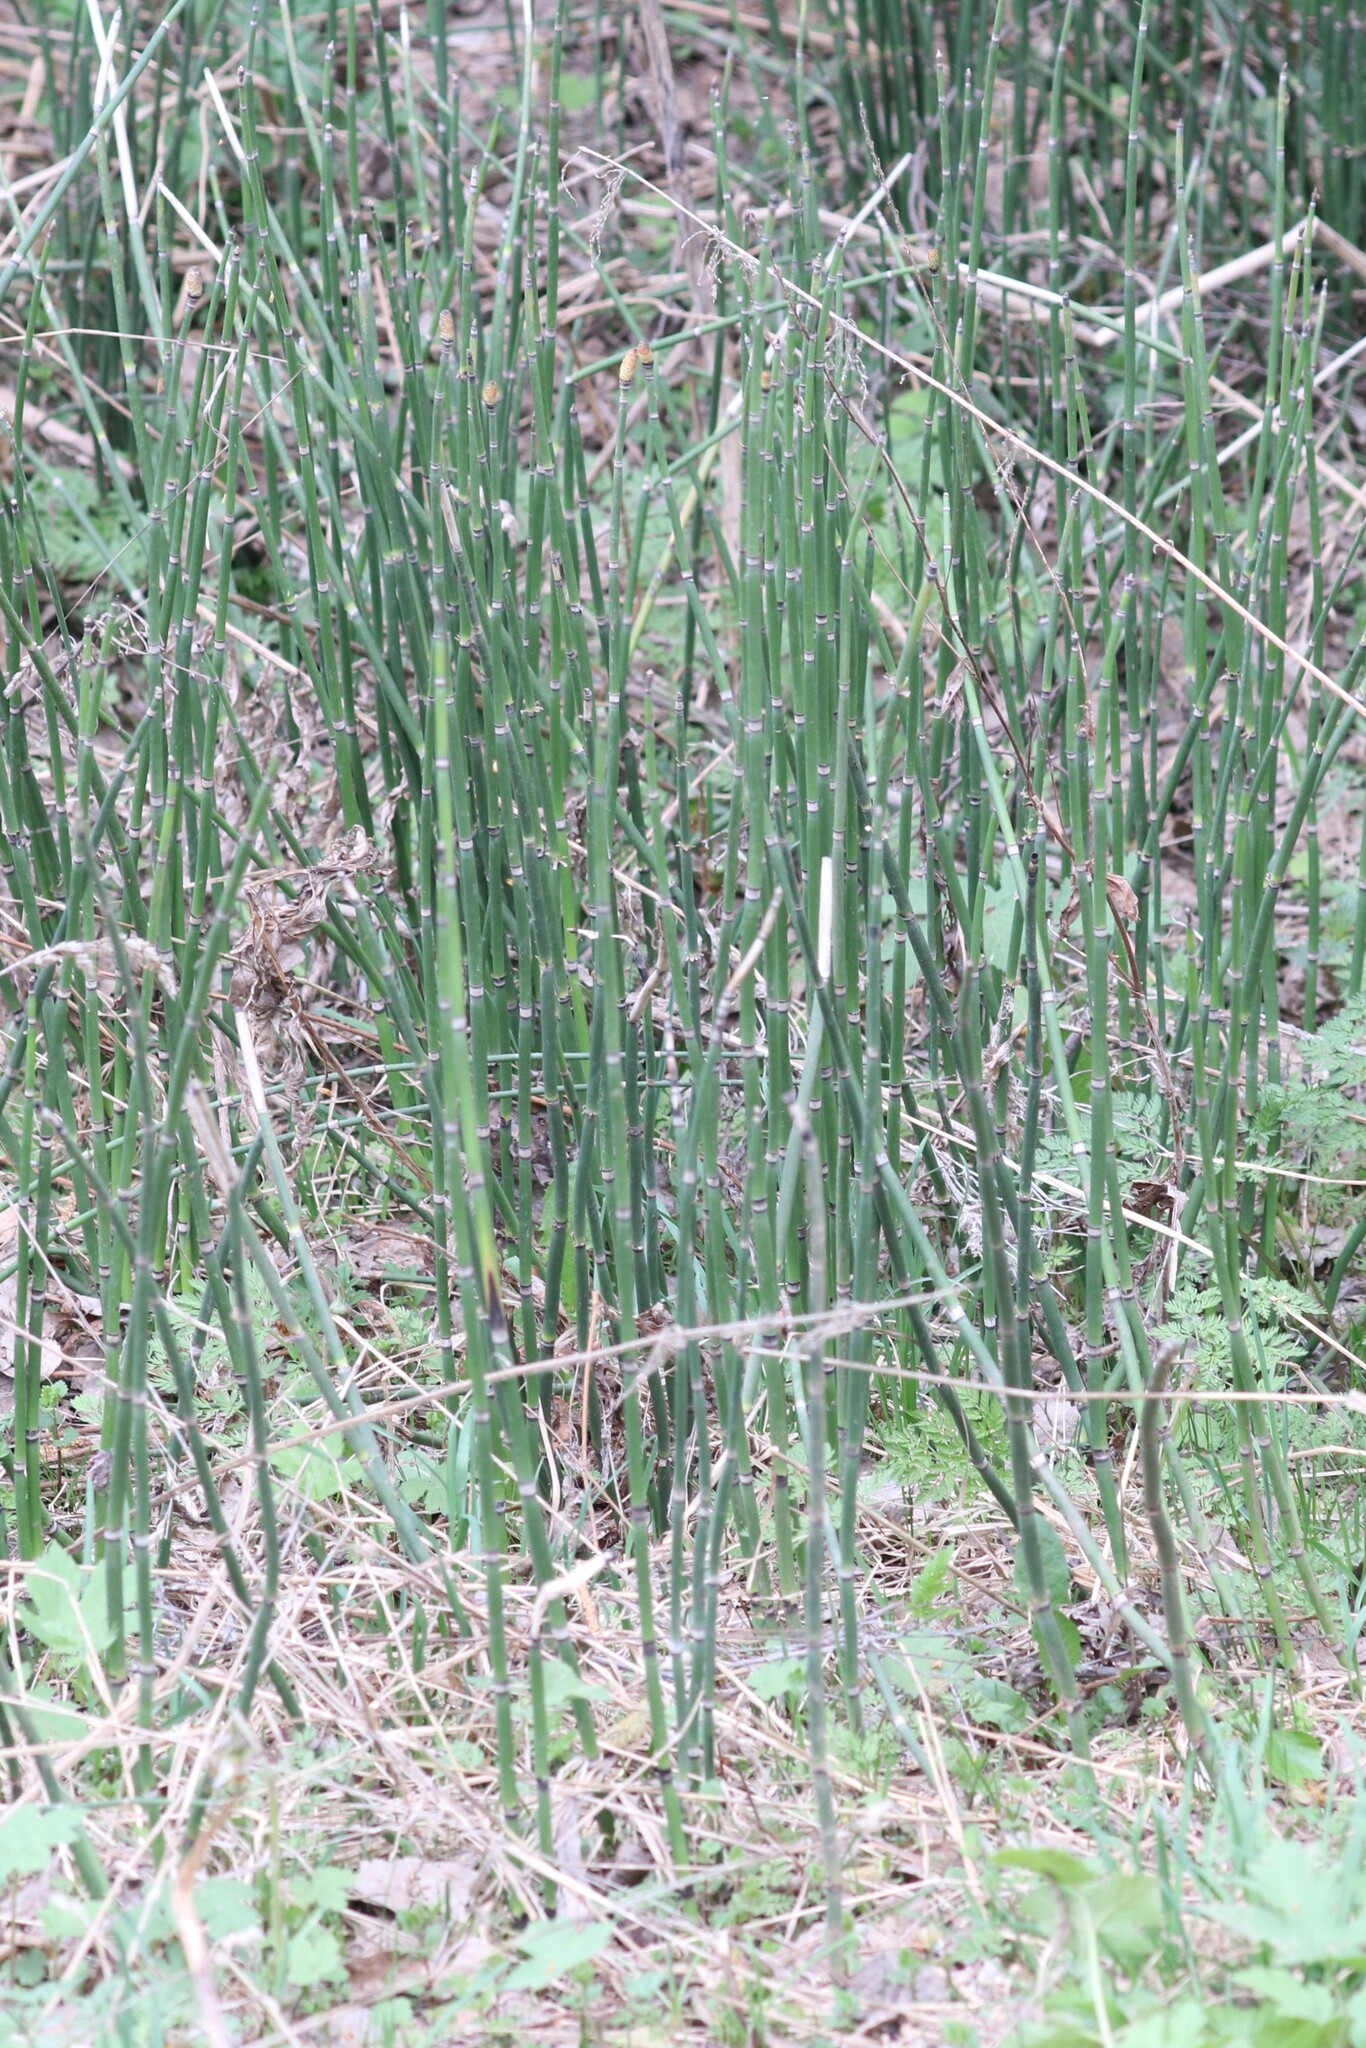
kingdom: Plantae
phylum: Tracheophyta
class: Polypodiopsida
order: Equisetales
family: Equisetaceae
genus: Equisetum
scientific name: Equisetum hyemale
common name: Rough horsetail
